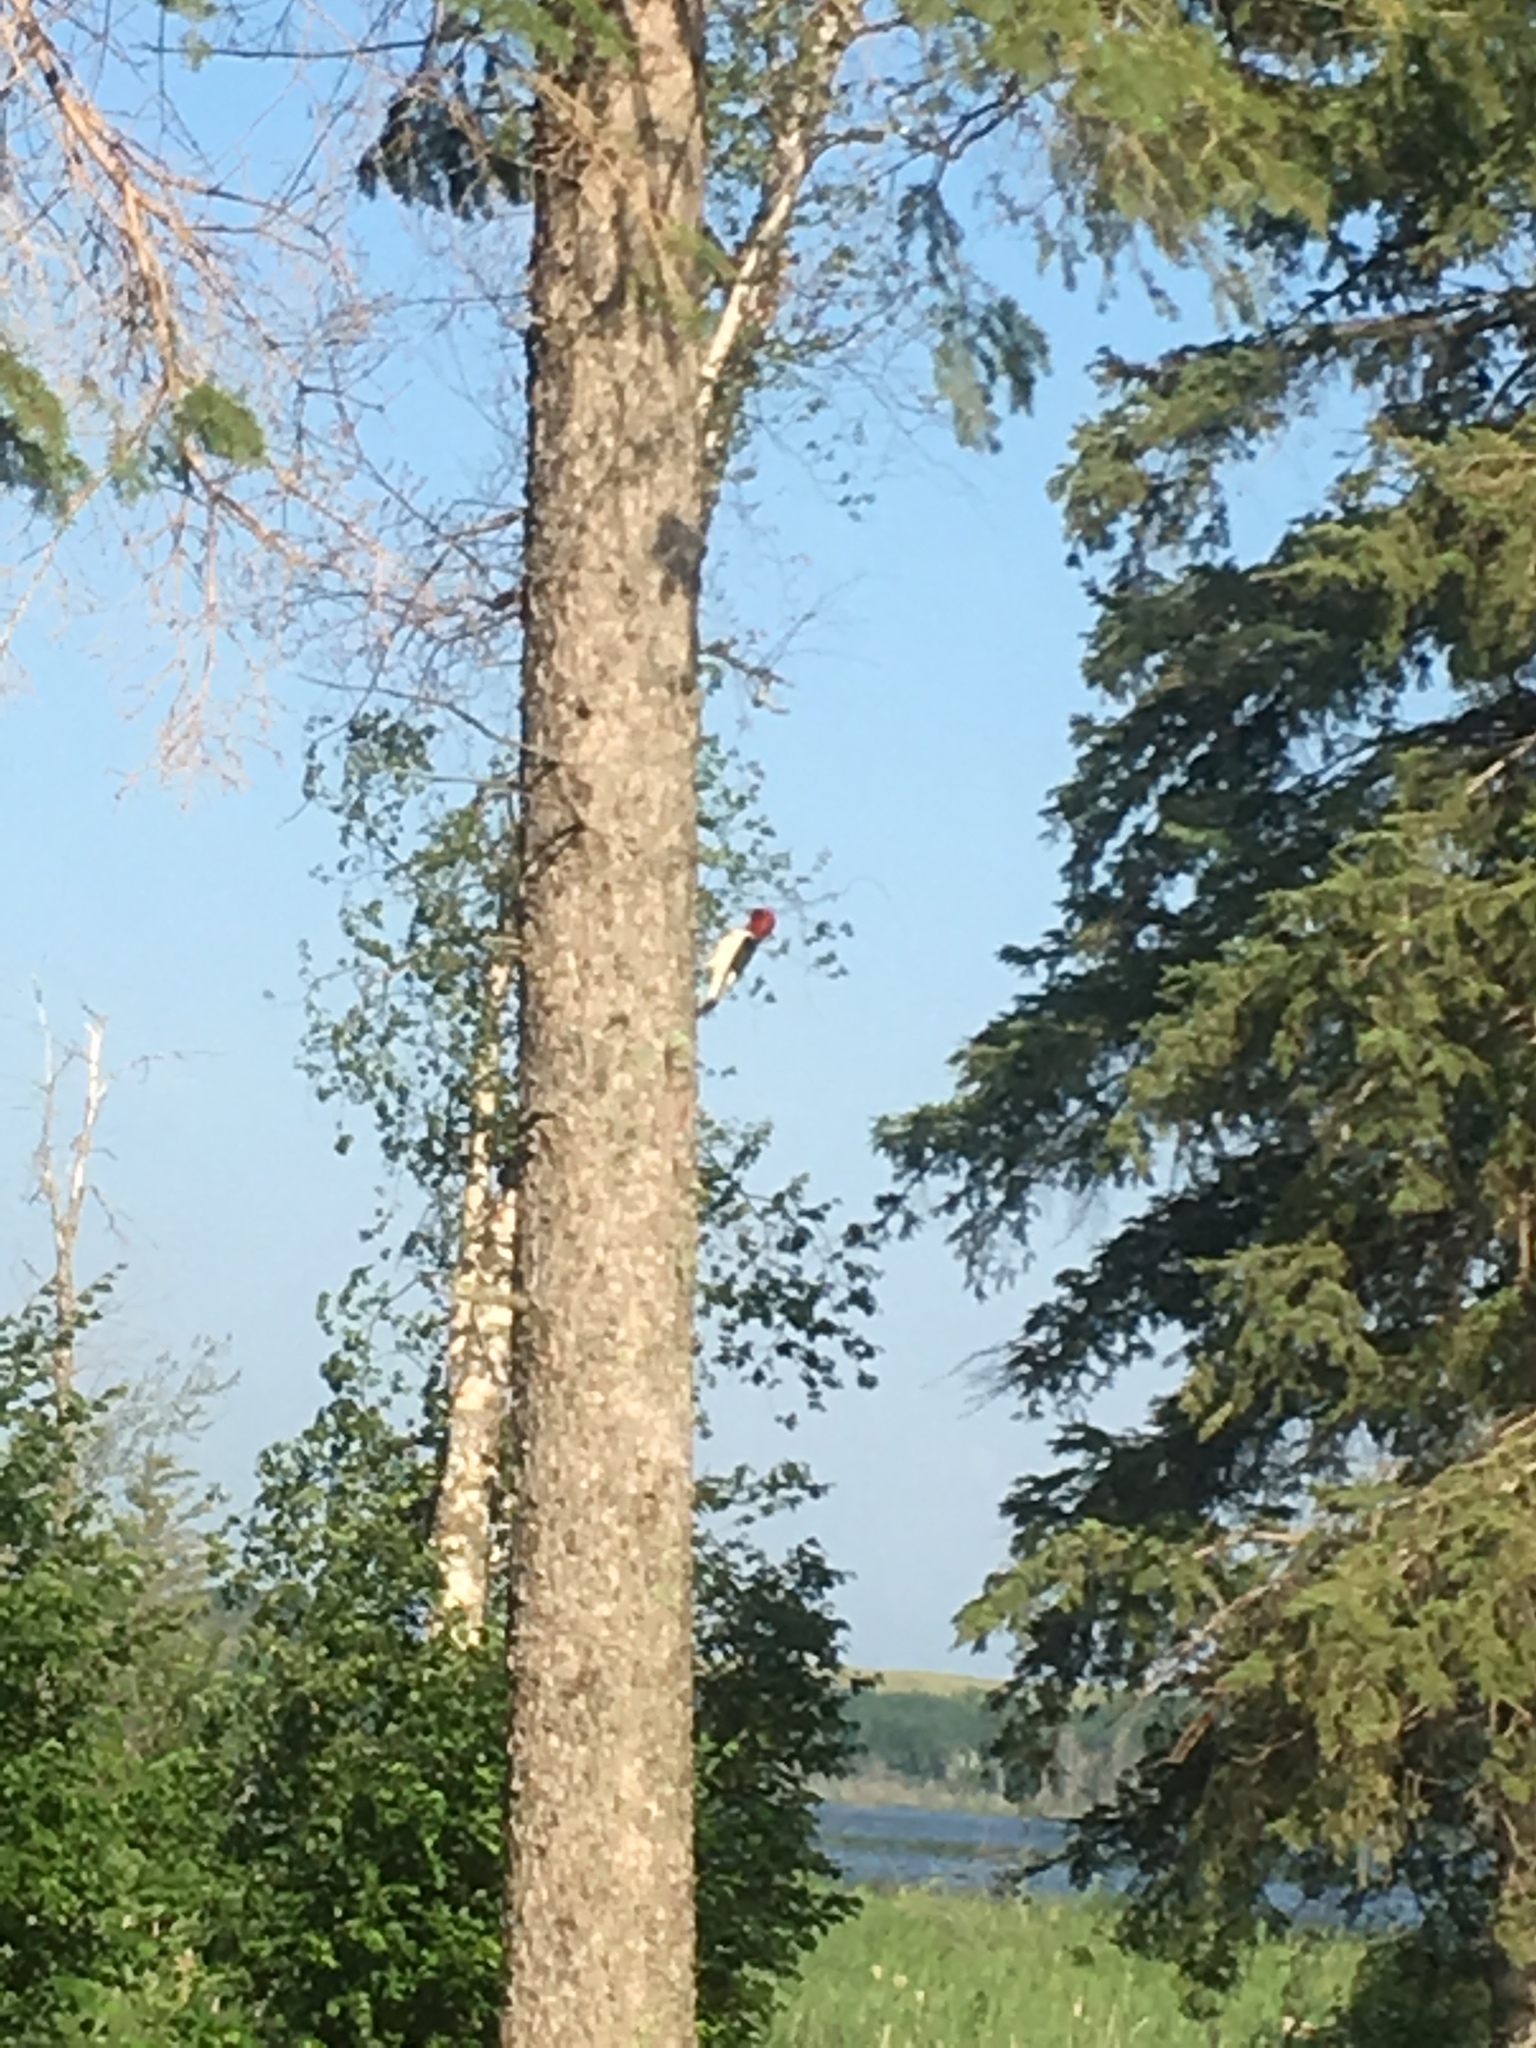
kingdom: Animalia
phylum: Chordata
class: Aves
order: Piciformes
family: Picidae
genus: Melanerpes
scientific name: Melanerpes erythrocephalus
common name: Red-headed woodpecker
